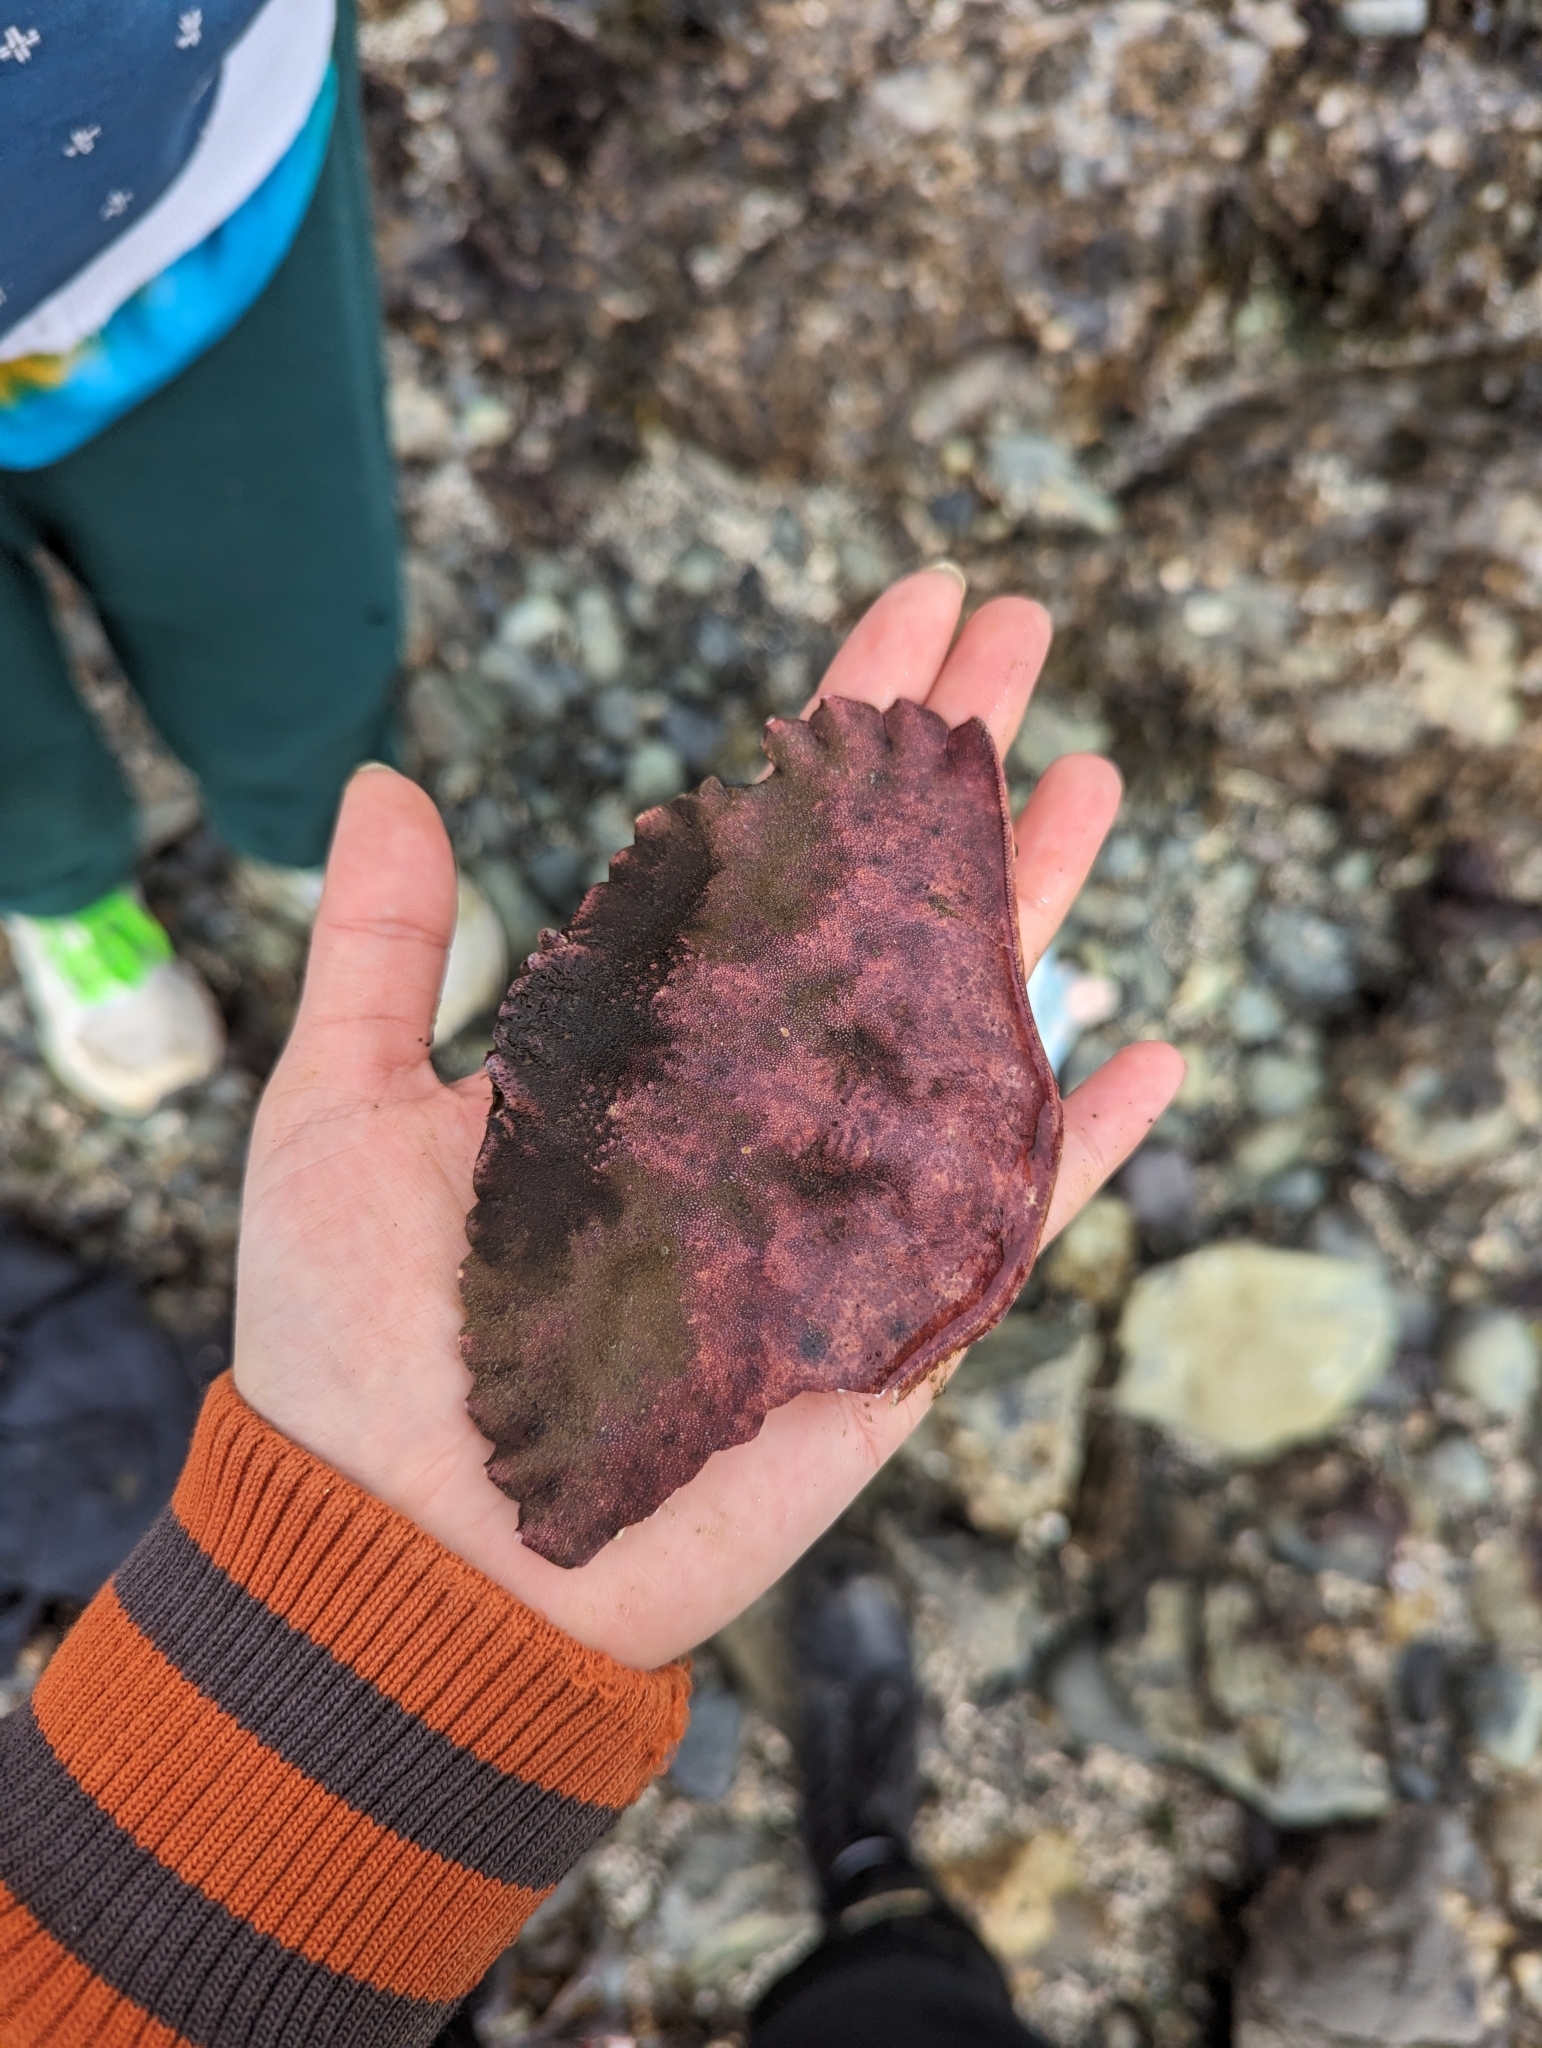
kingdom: Animalia
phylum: Arthropoda
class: Malacostraca
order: Decapoda
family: Cancridae
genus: Cancer
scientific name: Cancer productus
